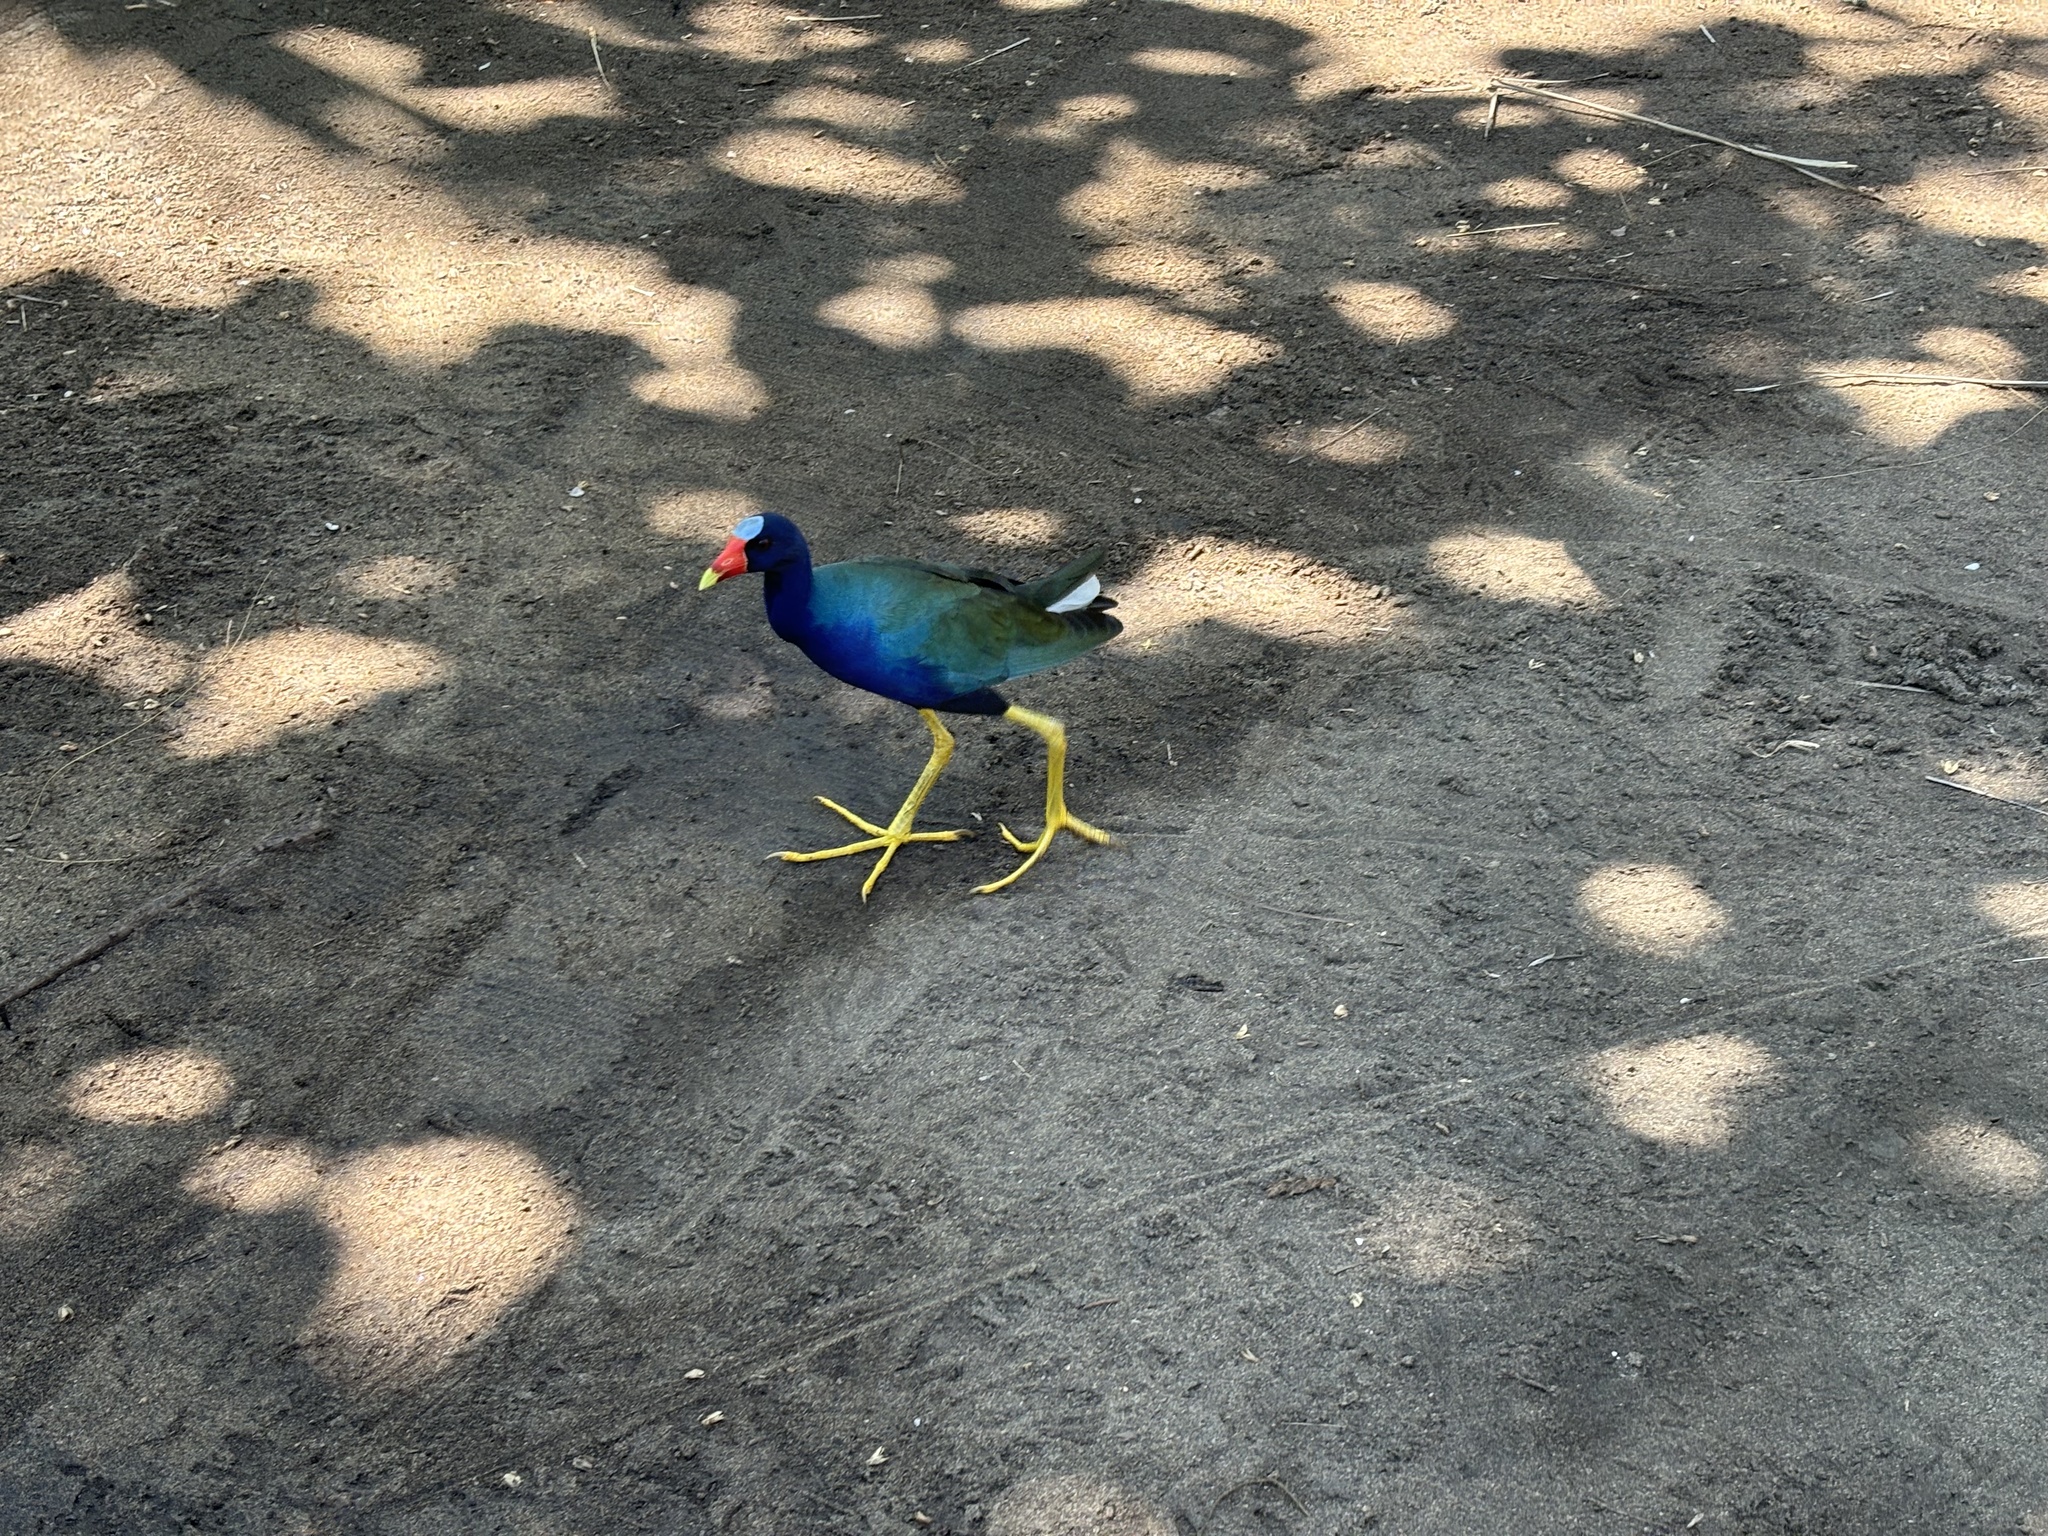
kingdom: Animalia
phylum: Chordata
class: Aves
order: Gruiformes
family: Rallidae
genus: Porphyrio
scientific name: Porphyrio martinica
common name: Purple gallinule
